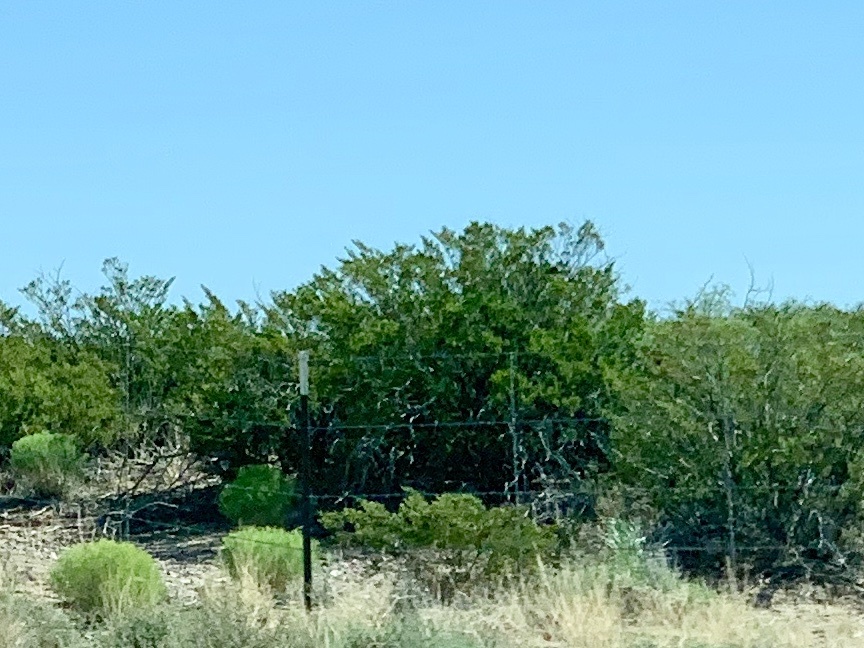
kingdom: Plantae
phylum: Tracheophyta
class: Magnoliopsida
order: Zygophyllales
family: Zygophyllaceae
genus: Larrea
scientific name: Larrea tridentata
